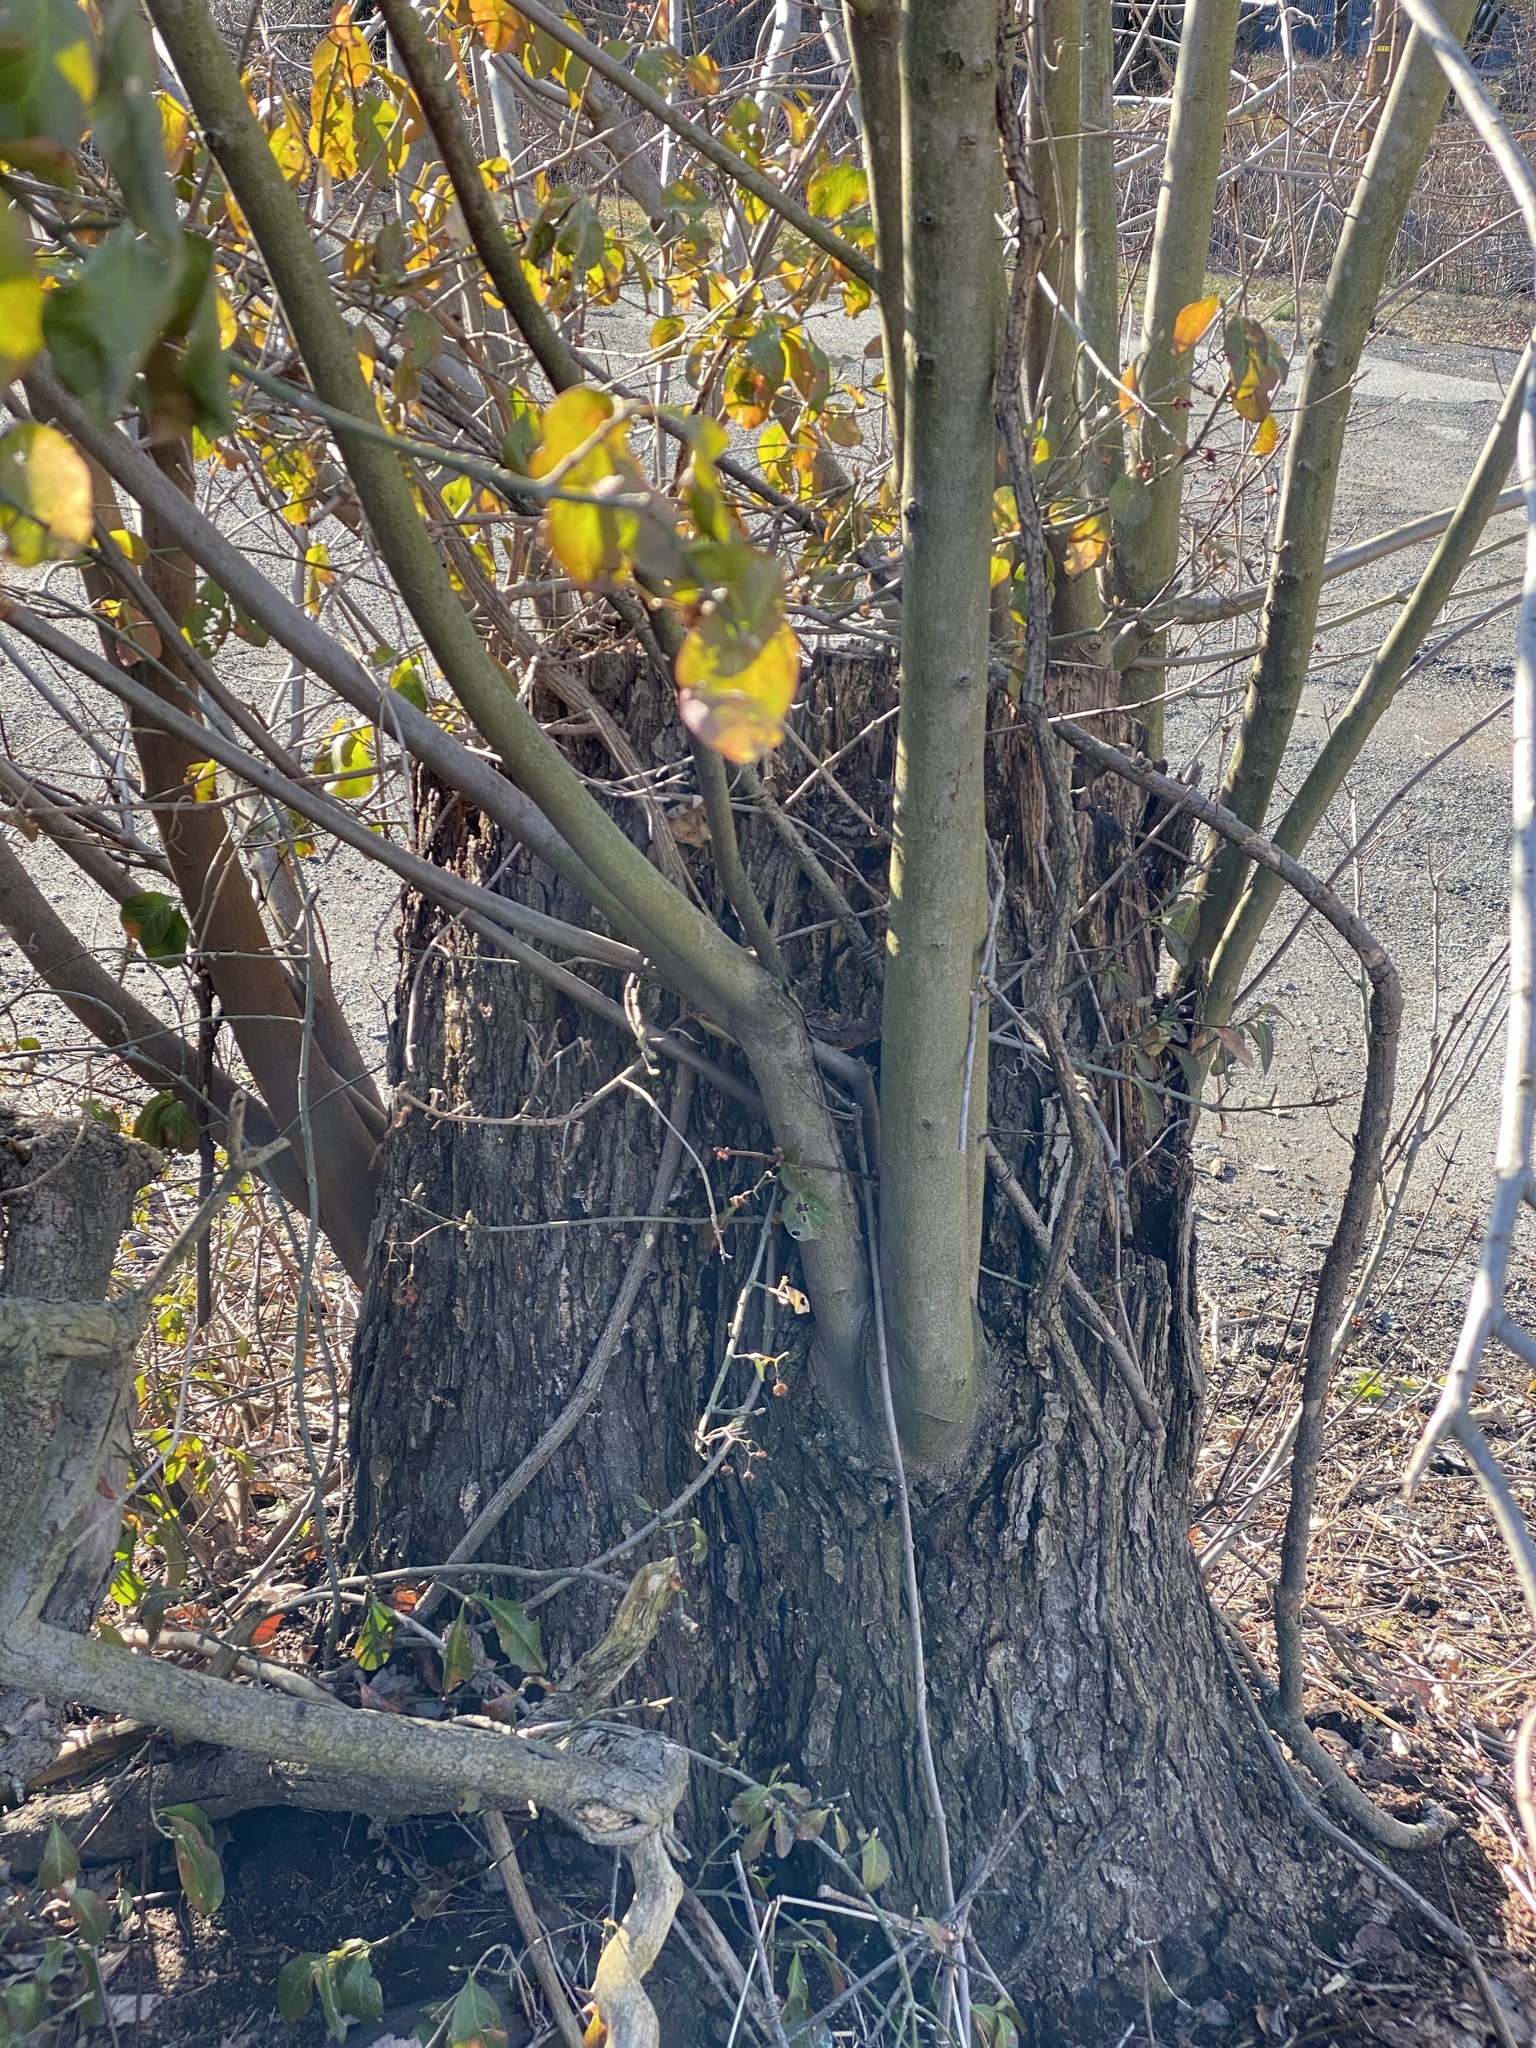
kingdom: Plantae
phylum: Tracheophyta
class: Magnoliopsida
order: Sapindales
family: Sapindaceae
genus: Acer
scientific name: Acer saccharinum
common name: Silver maple
